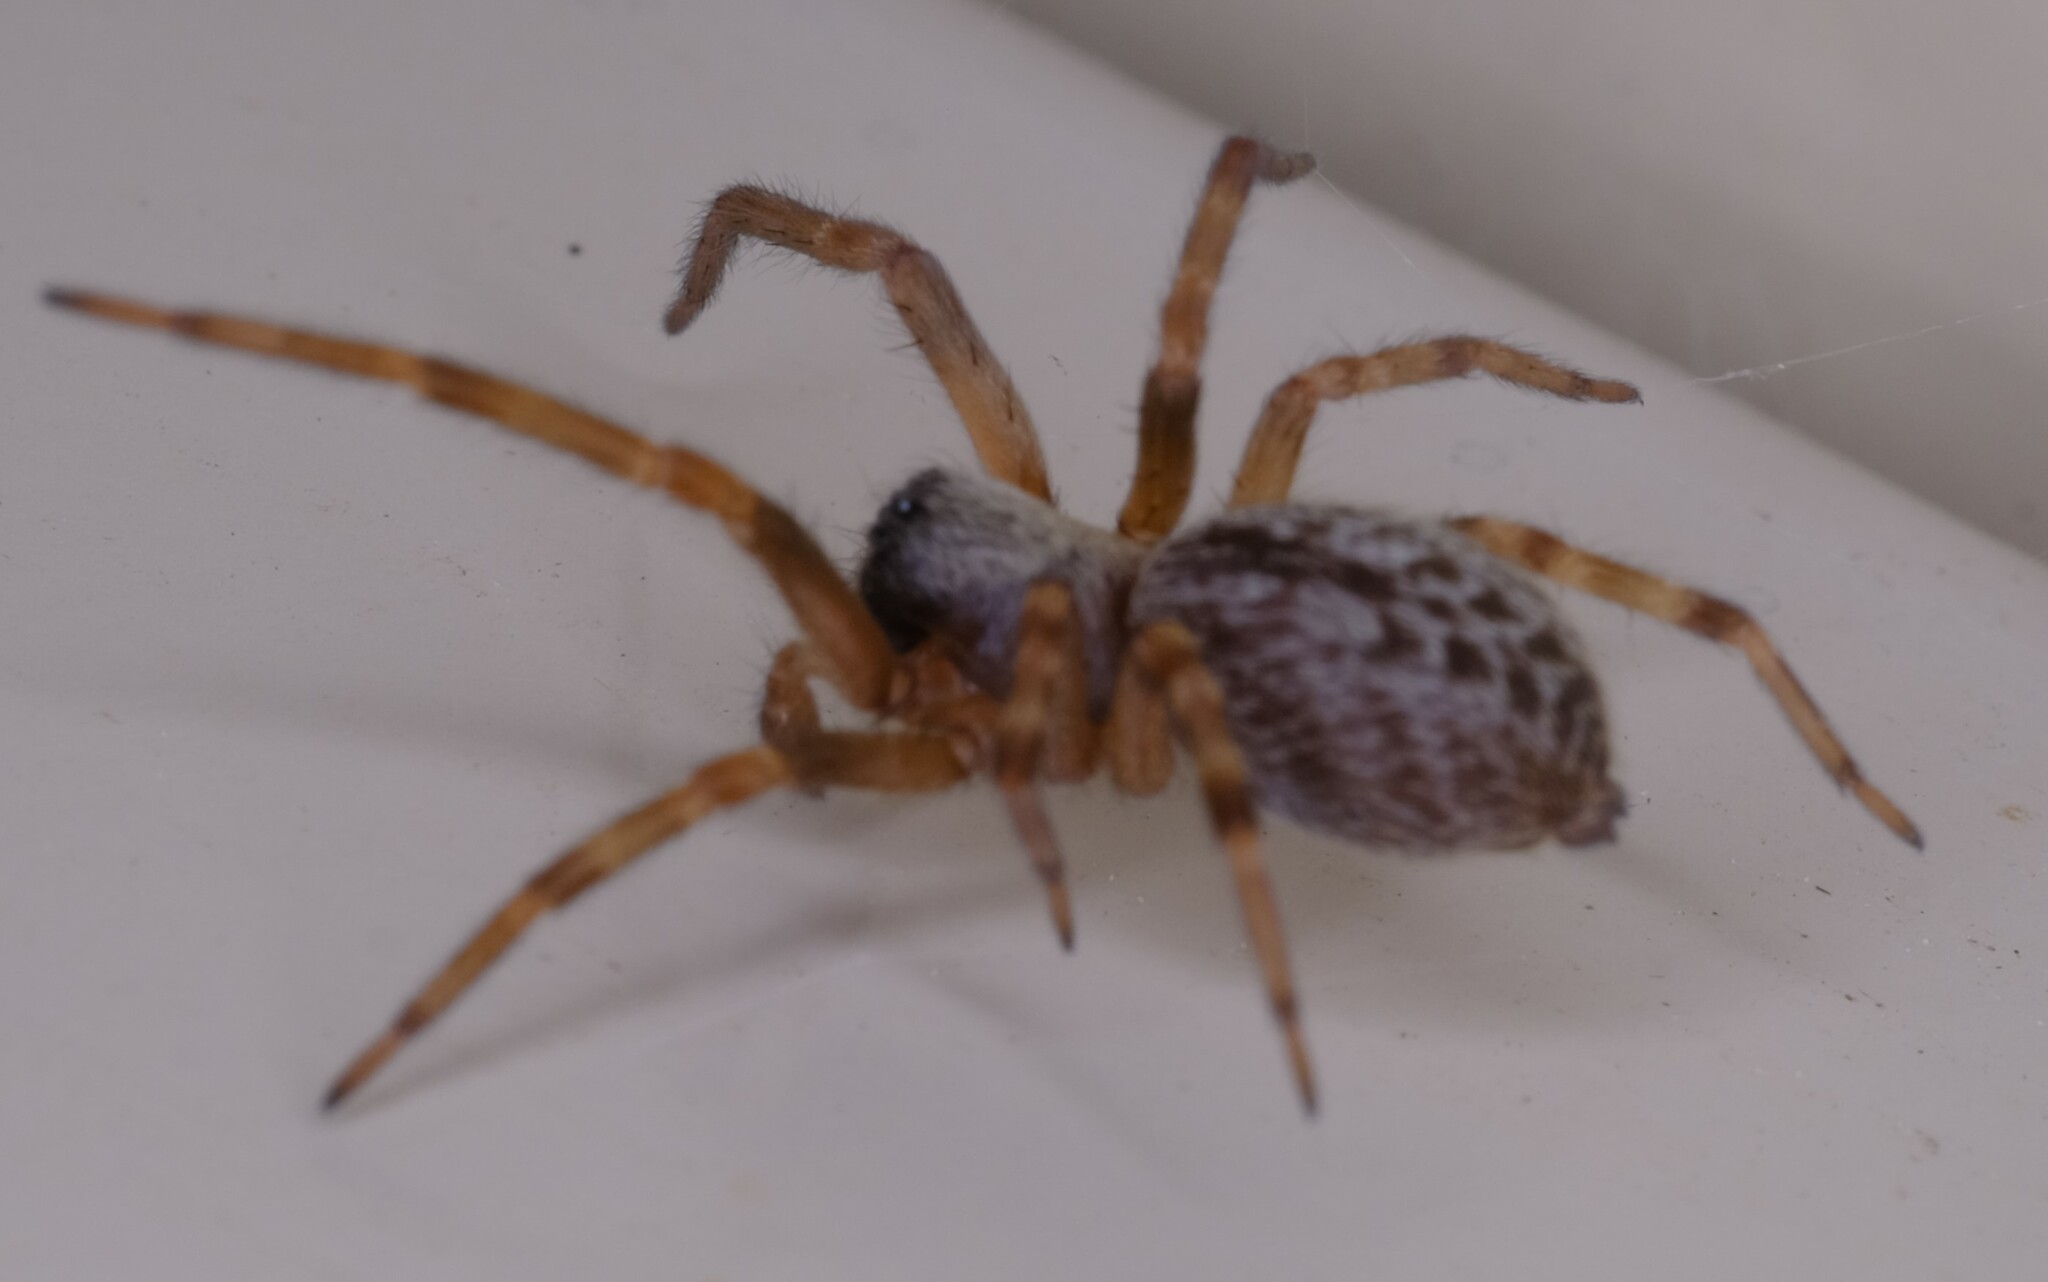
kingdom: Animalia
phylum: Arthropoda
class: Arachnida
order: Araneae
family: Desidae
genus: Badumna
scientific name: Badumna longinqua
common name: Gray house spider
